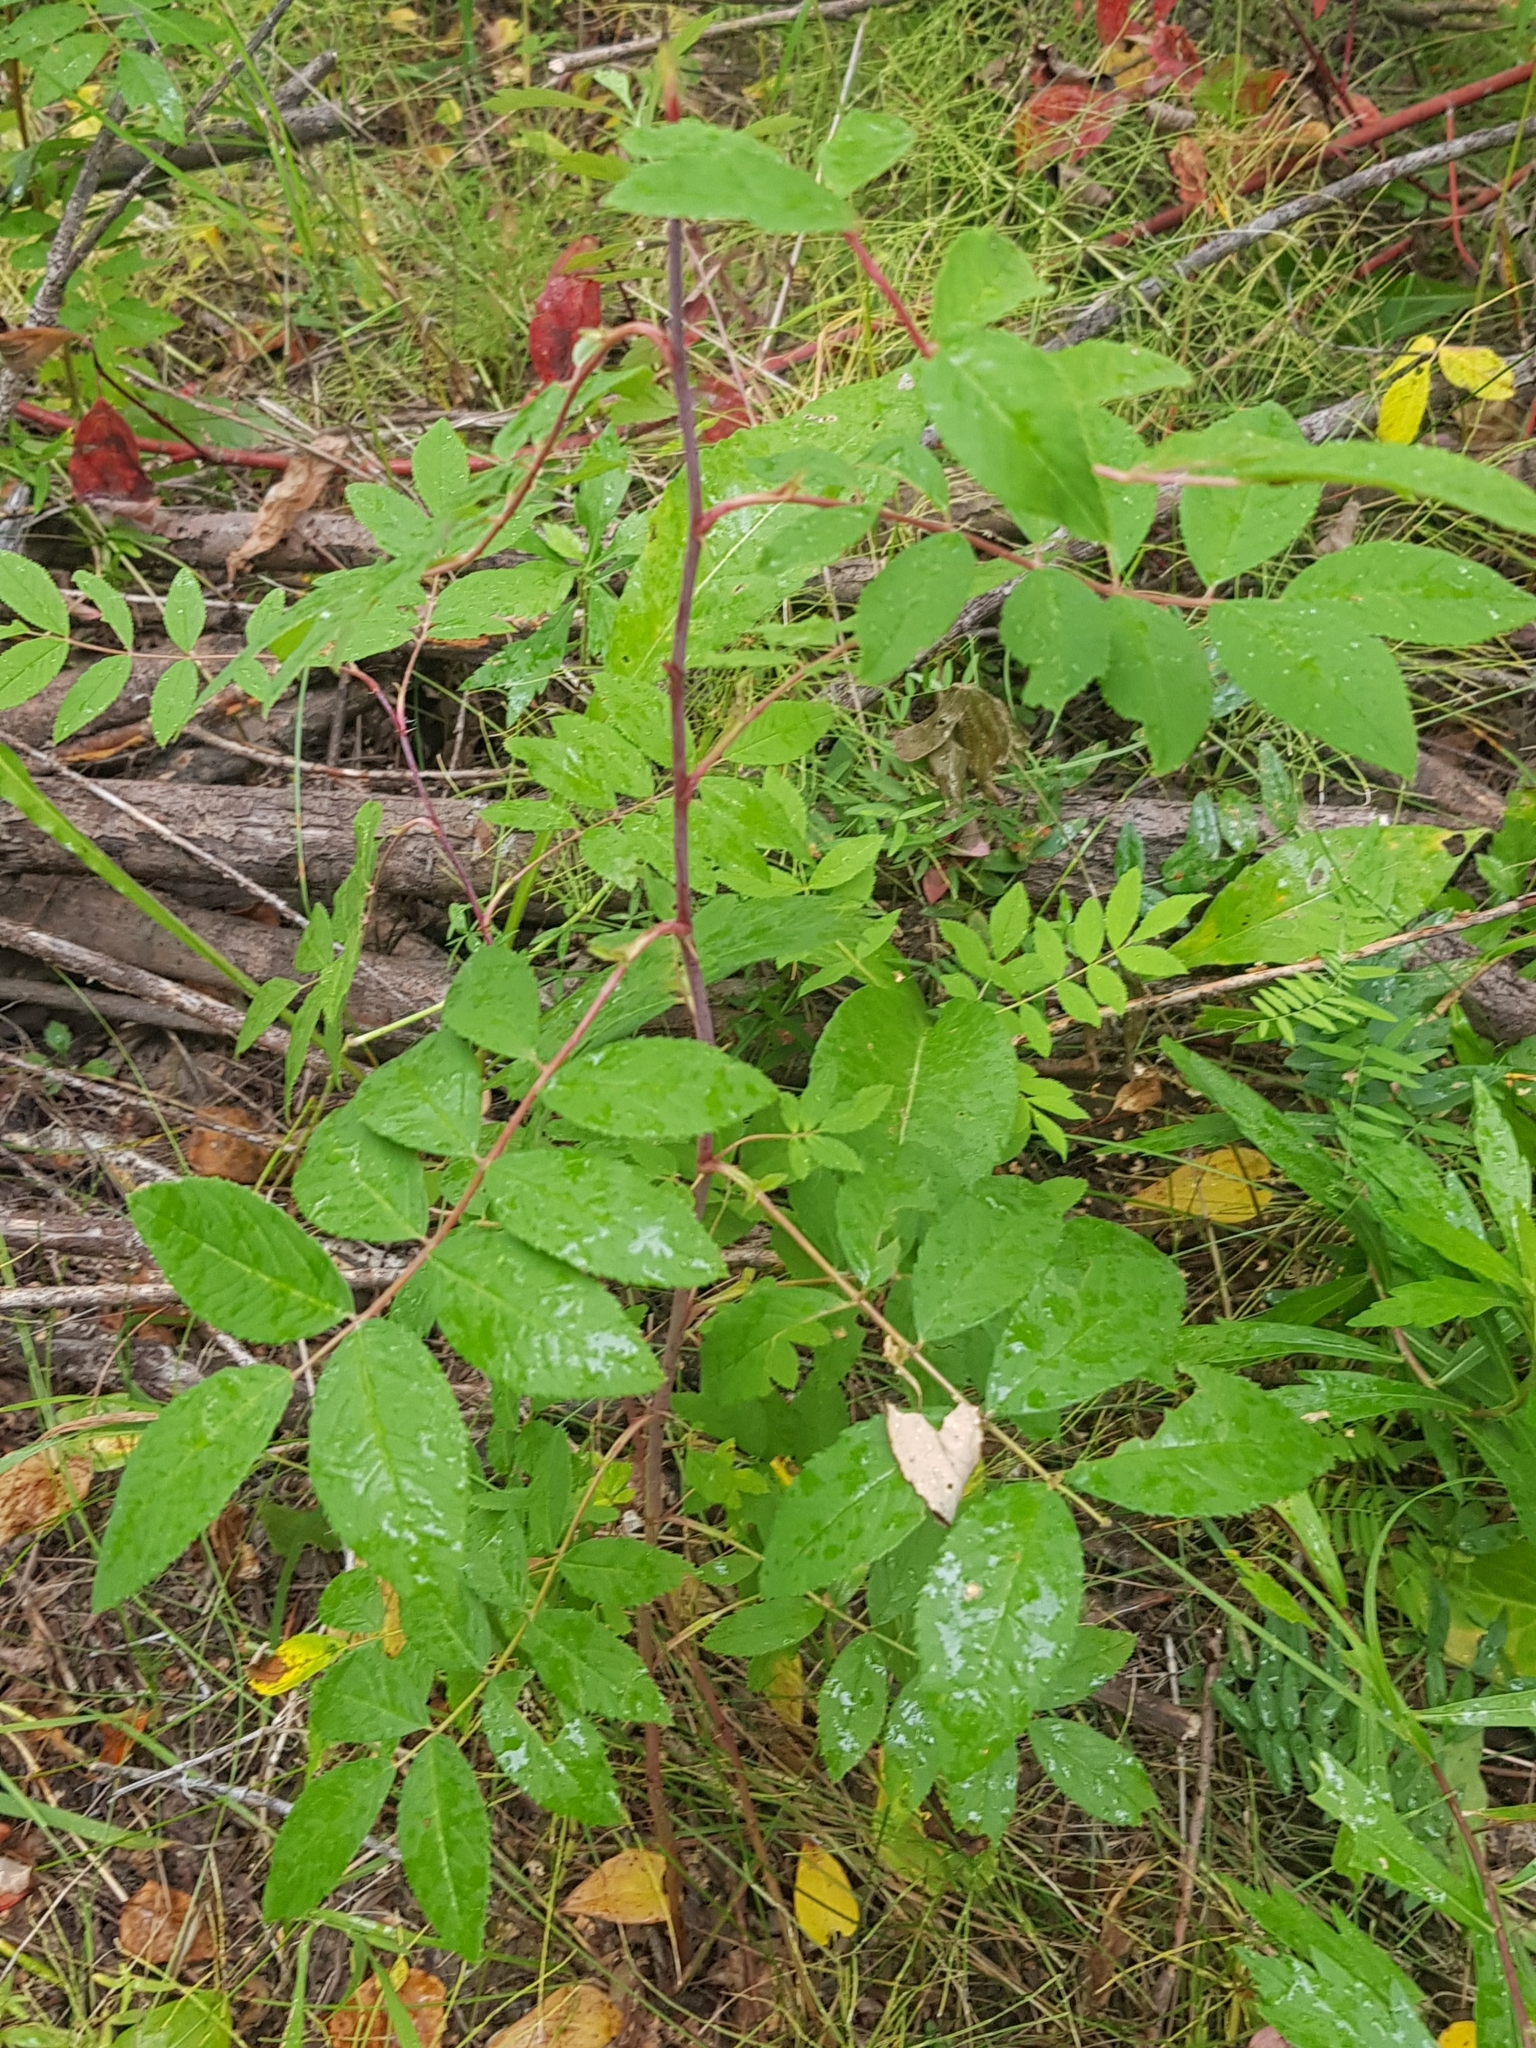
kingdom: Plantae
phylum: Tracheophyta
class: Magnoliopsida
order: Rosales
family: Rosaceae
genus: Sorbus
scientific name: Sorbus aucuparia
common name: Rowan
